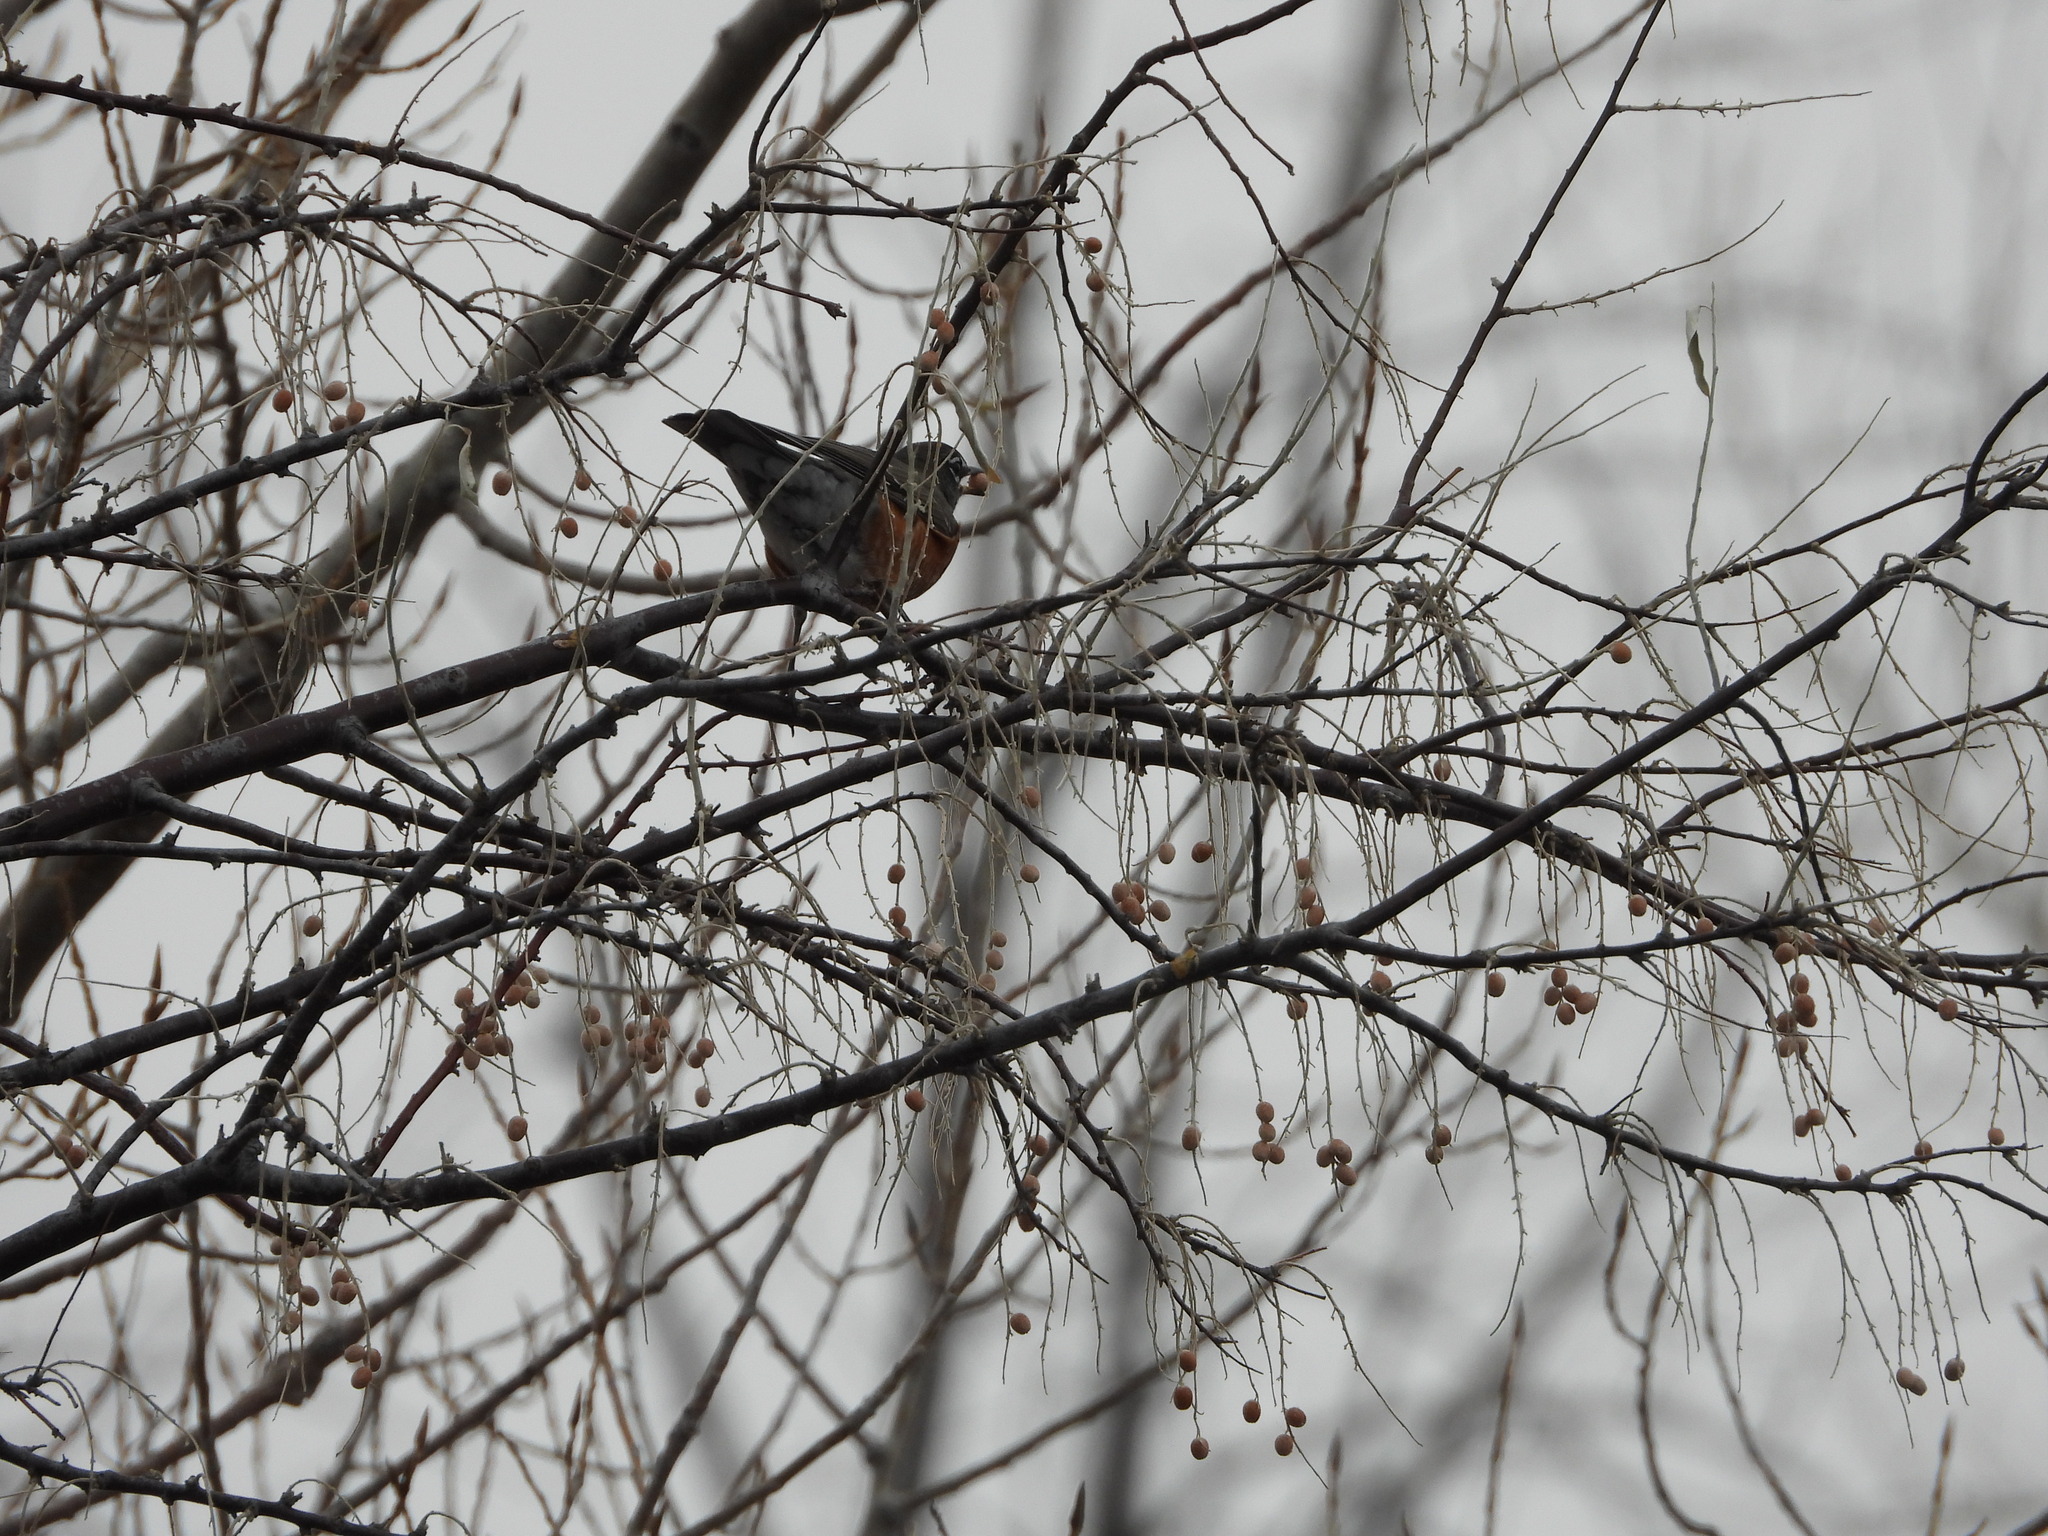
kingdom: Animalia
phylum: Chordata
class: Aves
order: Passeriformes
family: Turdidae
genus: Turdus
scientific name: Turdus migratorius
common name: American robin
